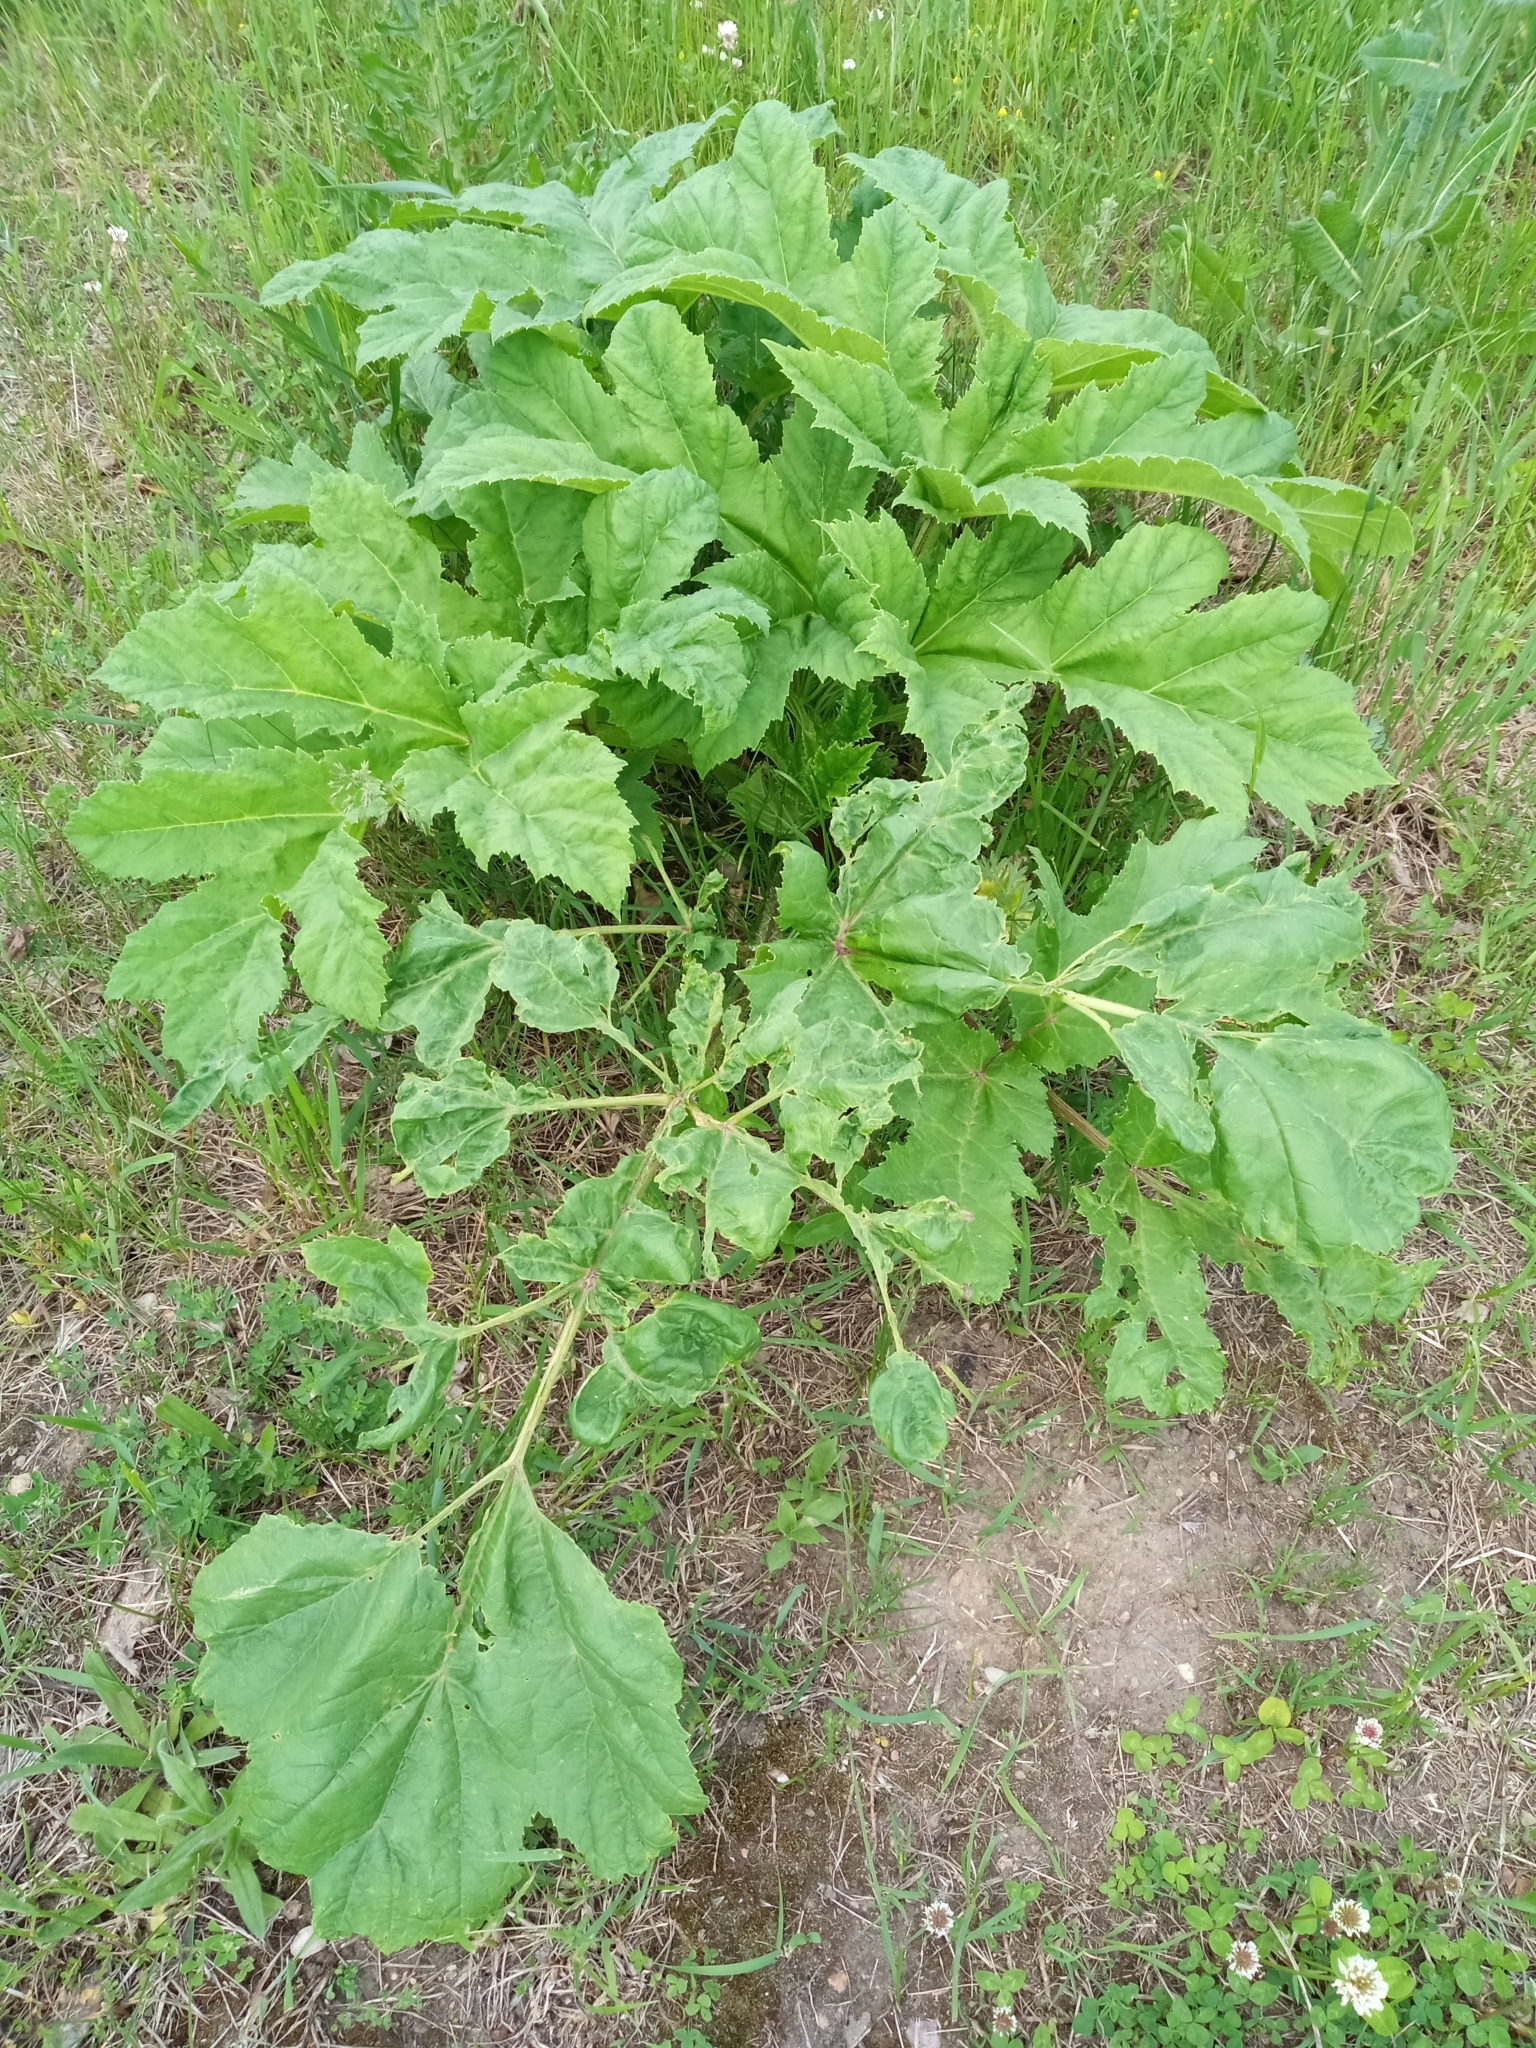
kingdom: Plantae
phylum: Tracheophyta
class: Magnoliopsida
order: Apiales
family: Apiaceae
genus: Heracleum
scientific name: Heracleum sosnowskyi
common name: Sosnowsky's hogweed
